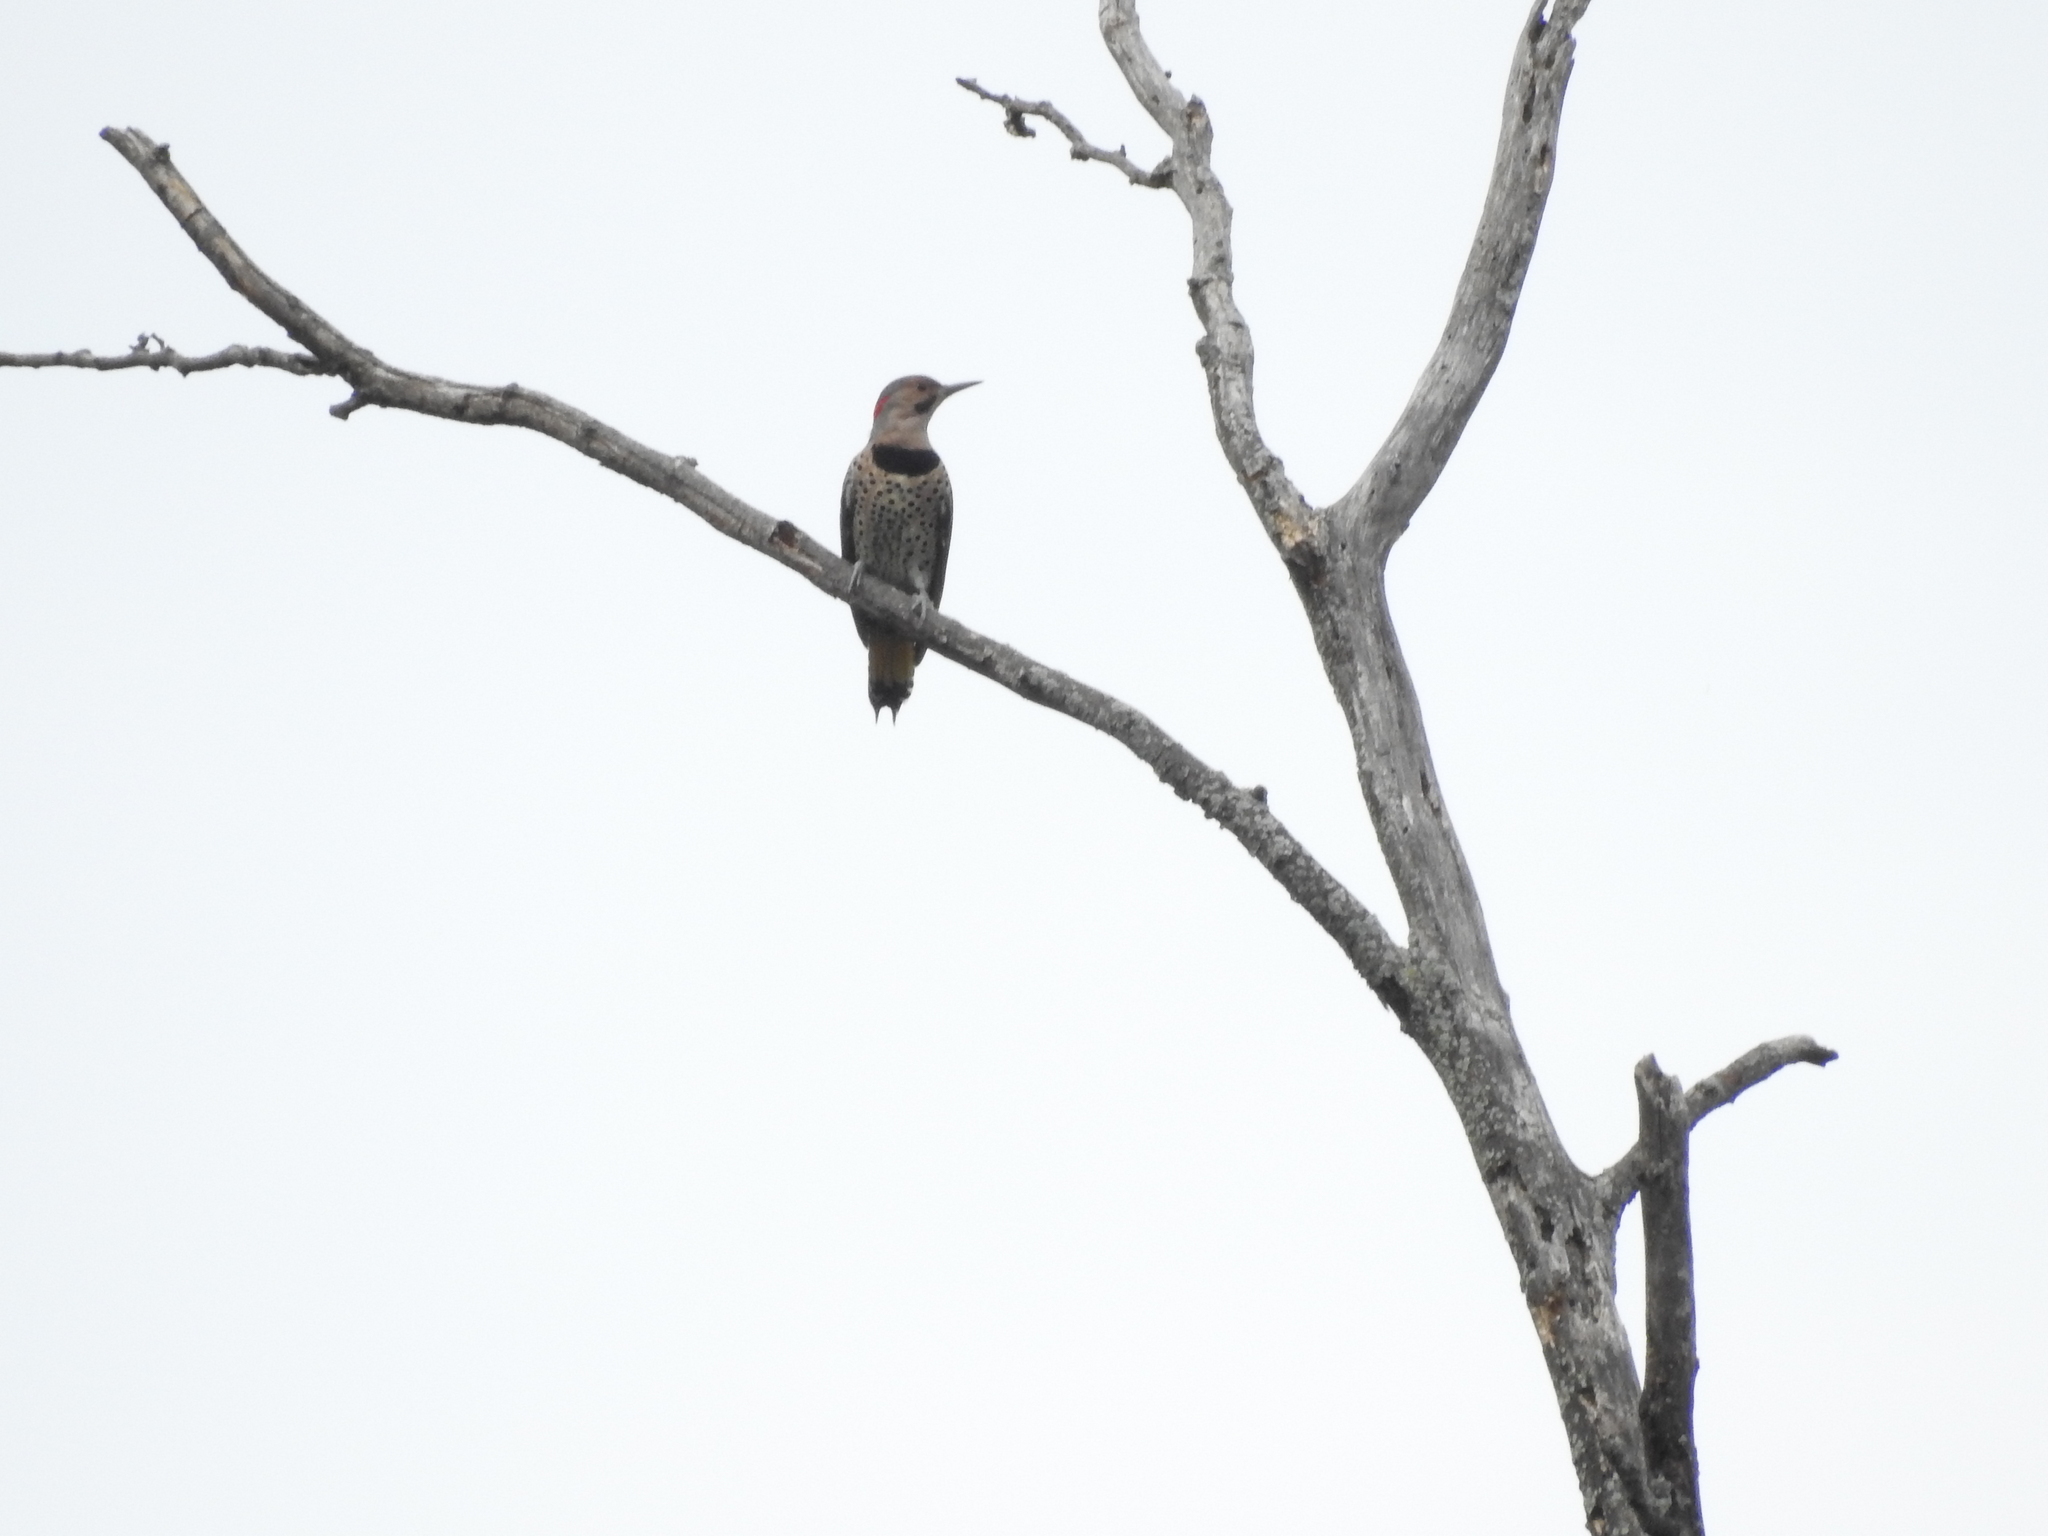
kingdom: Animalia
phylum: Chordata
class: Aves
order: Piciformes
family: Picidae
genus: Colaptes
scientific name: Colaptes auratus
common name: Northern flicker
